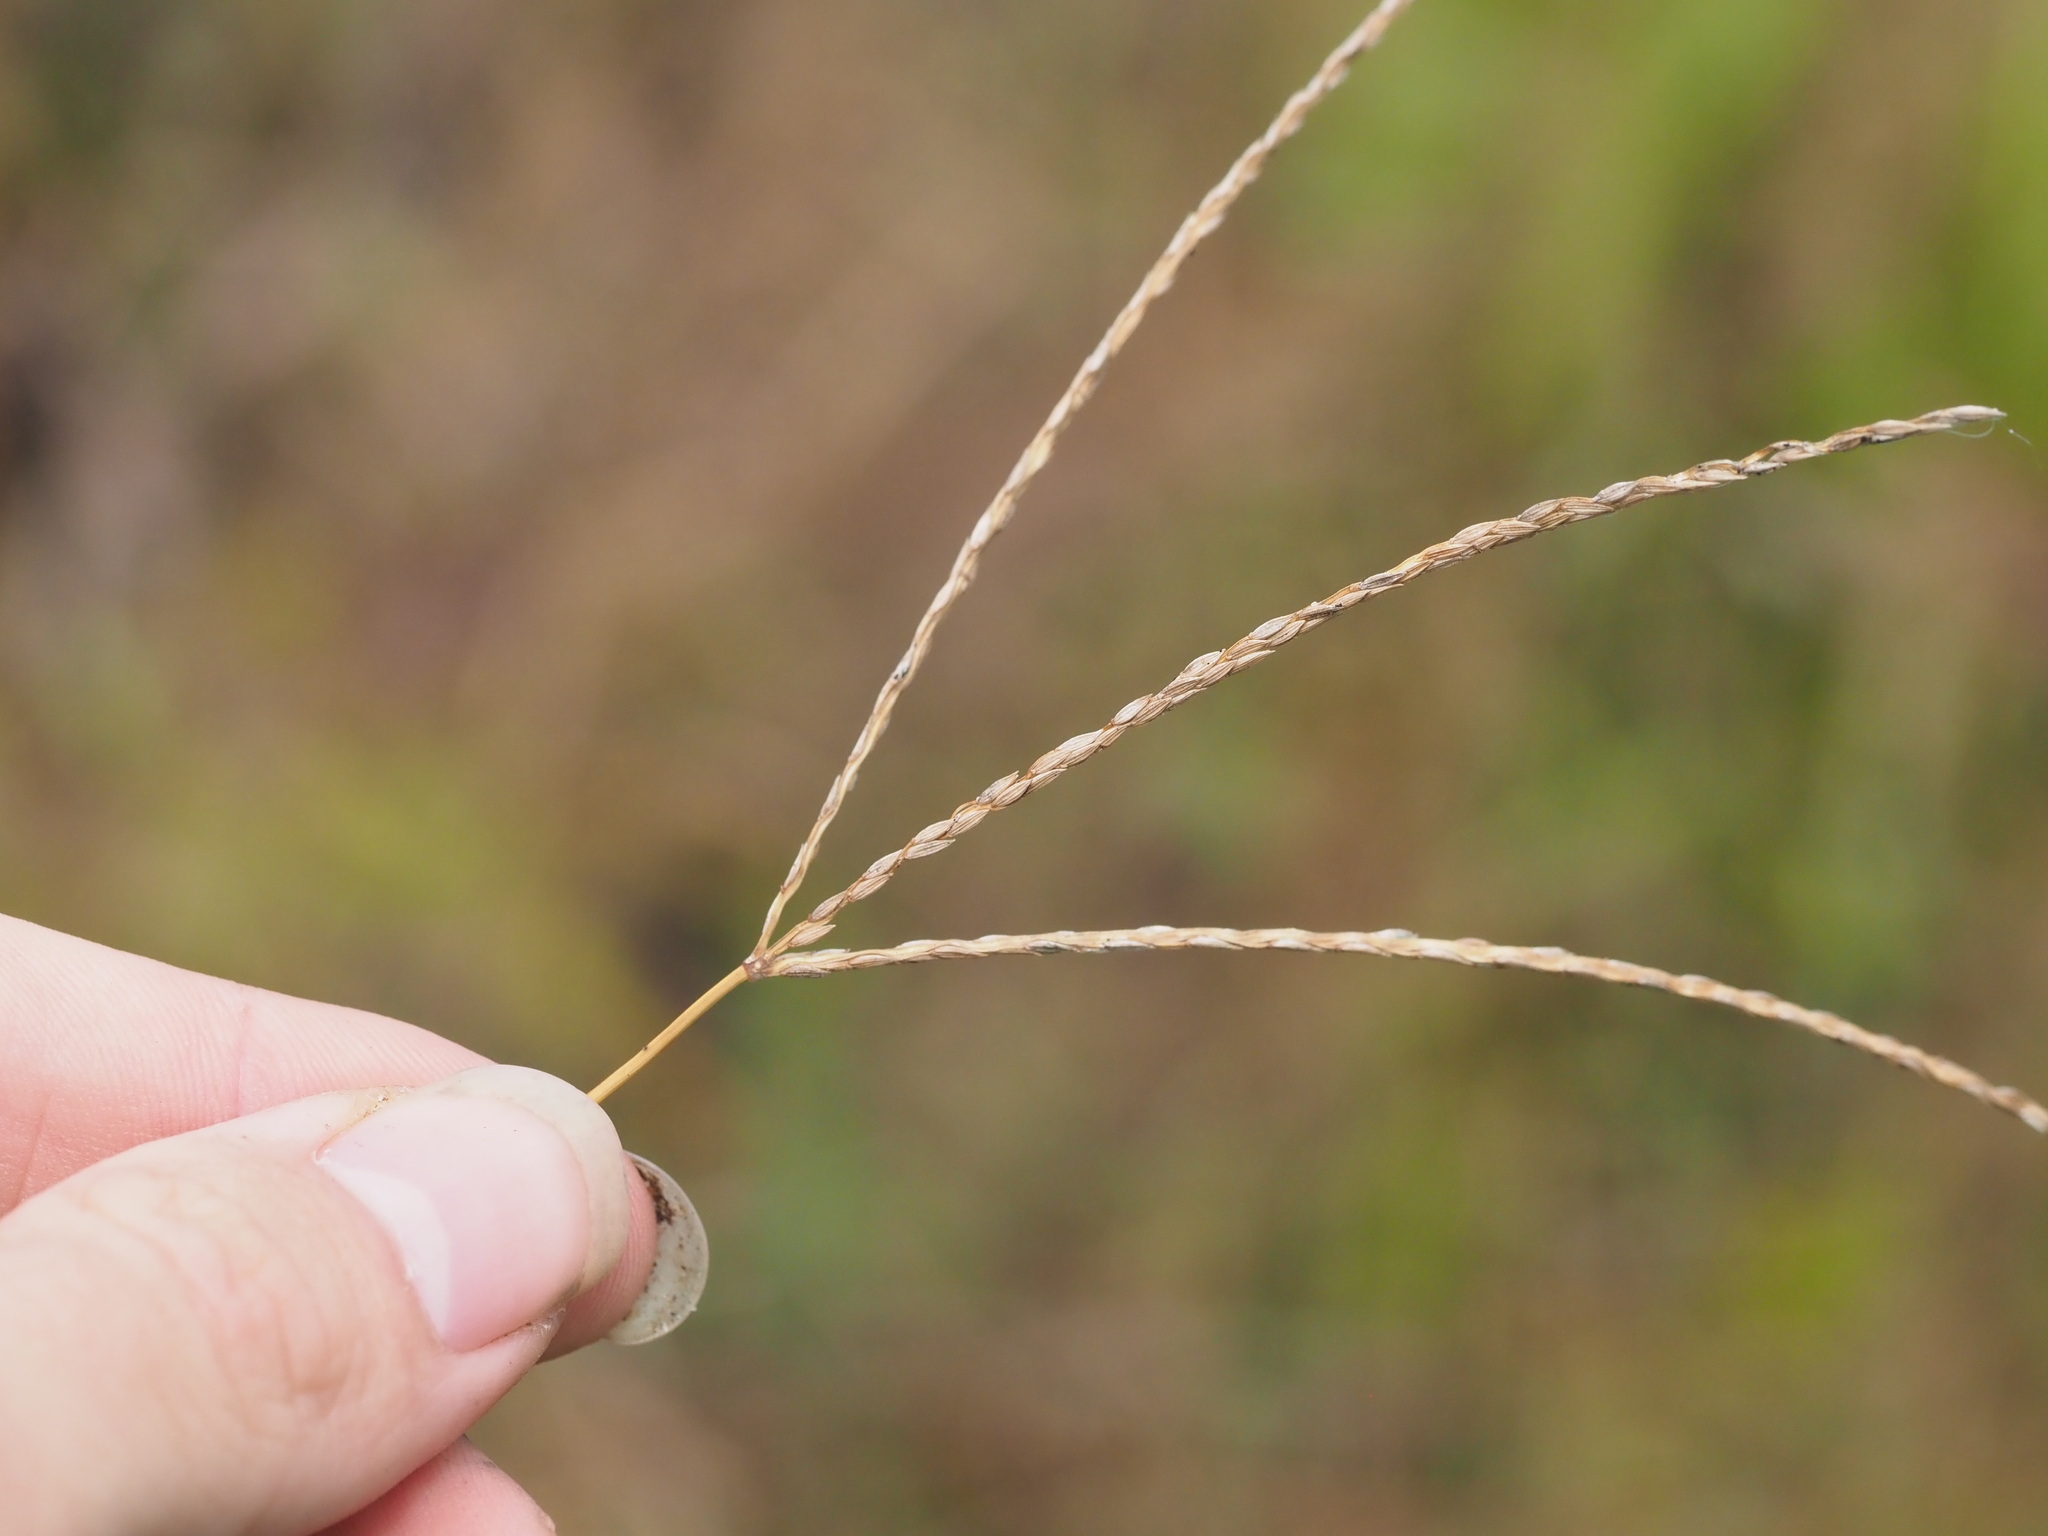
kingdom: Plantae
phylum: Tracheophyta
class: Liliopsida
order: Poales
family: Poaceae
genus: Digitaria
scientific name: Digitaria eriantha
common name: Digitgrass
